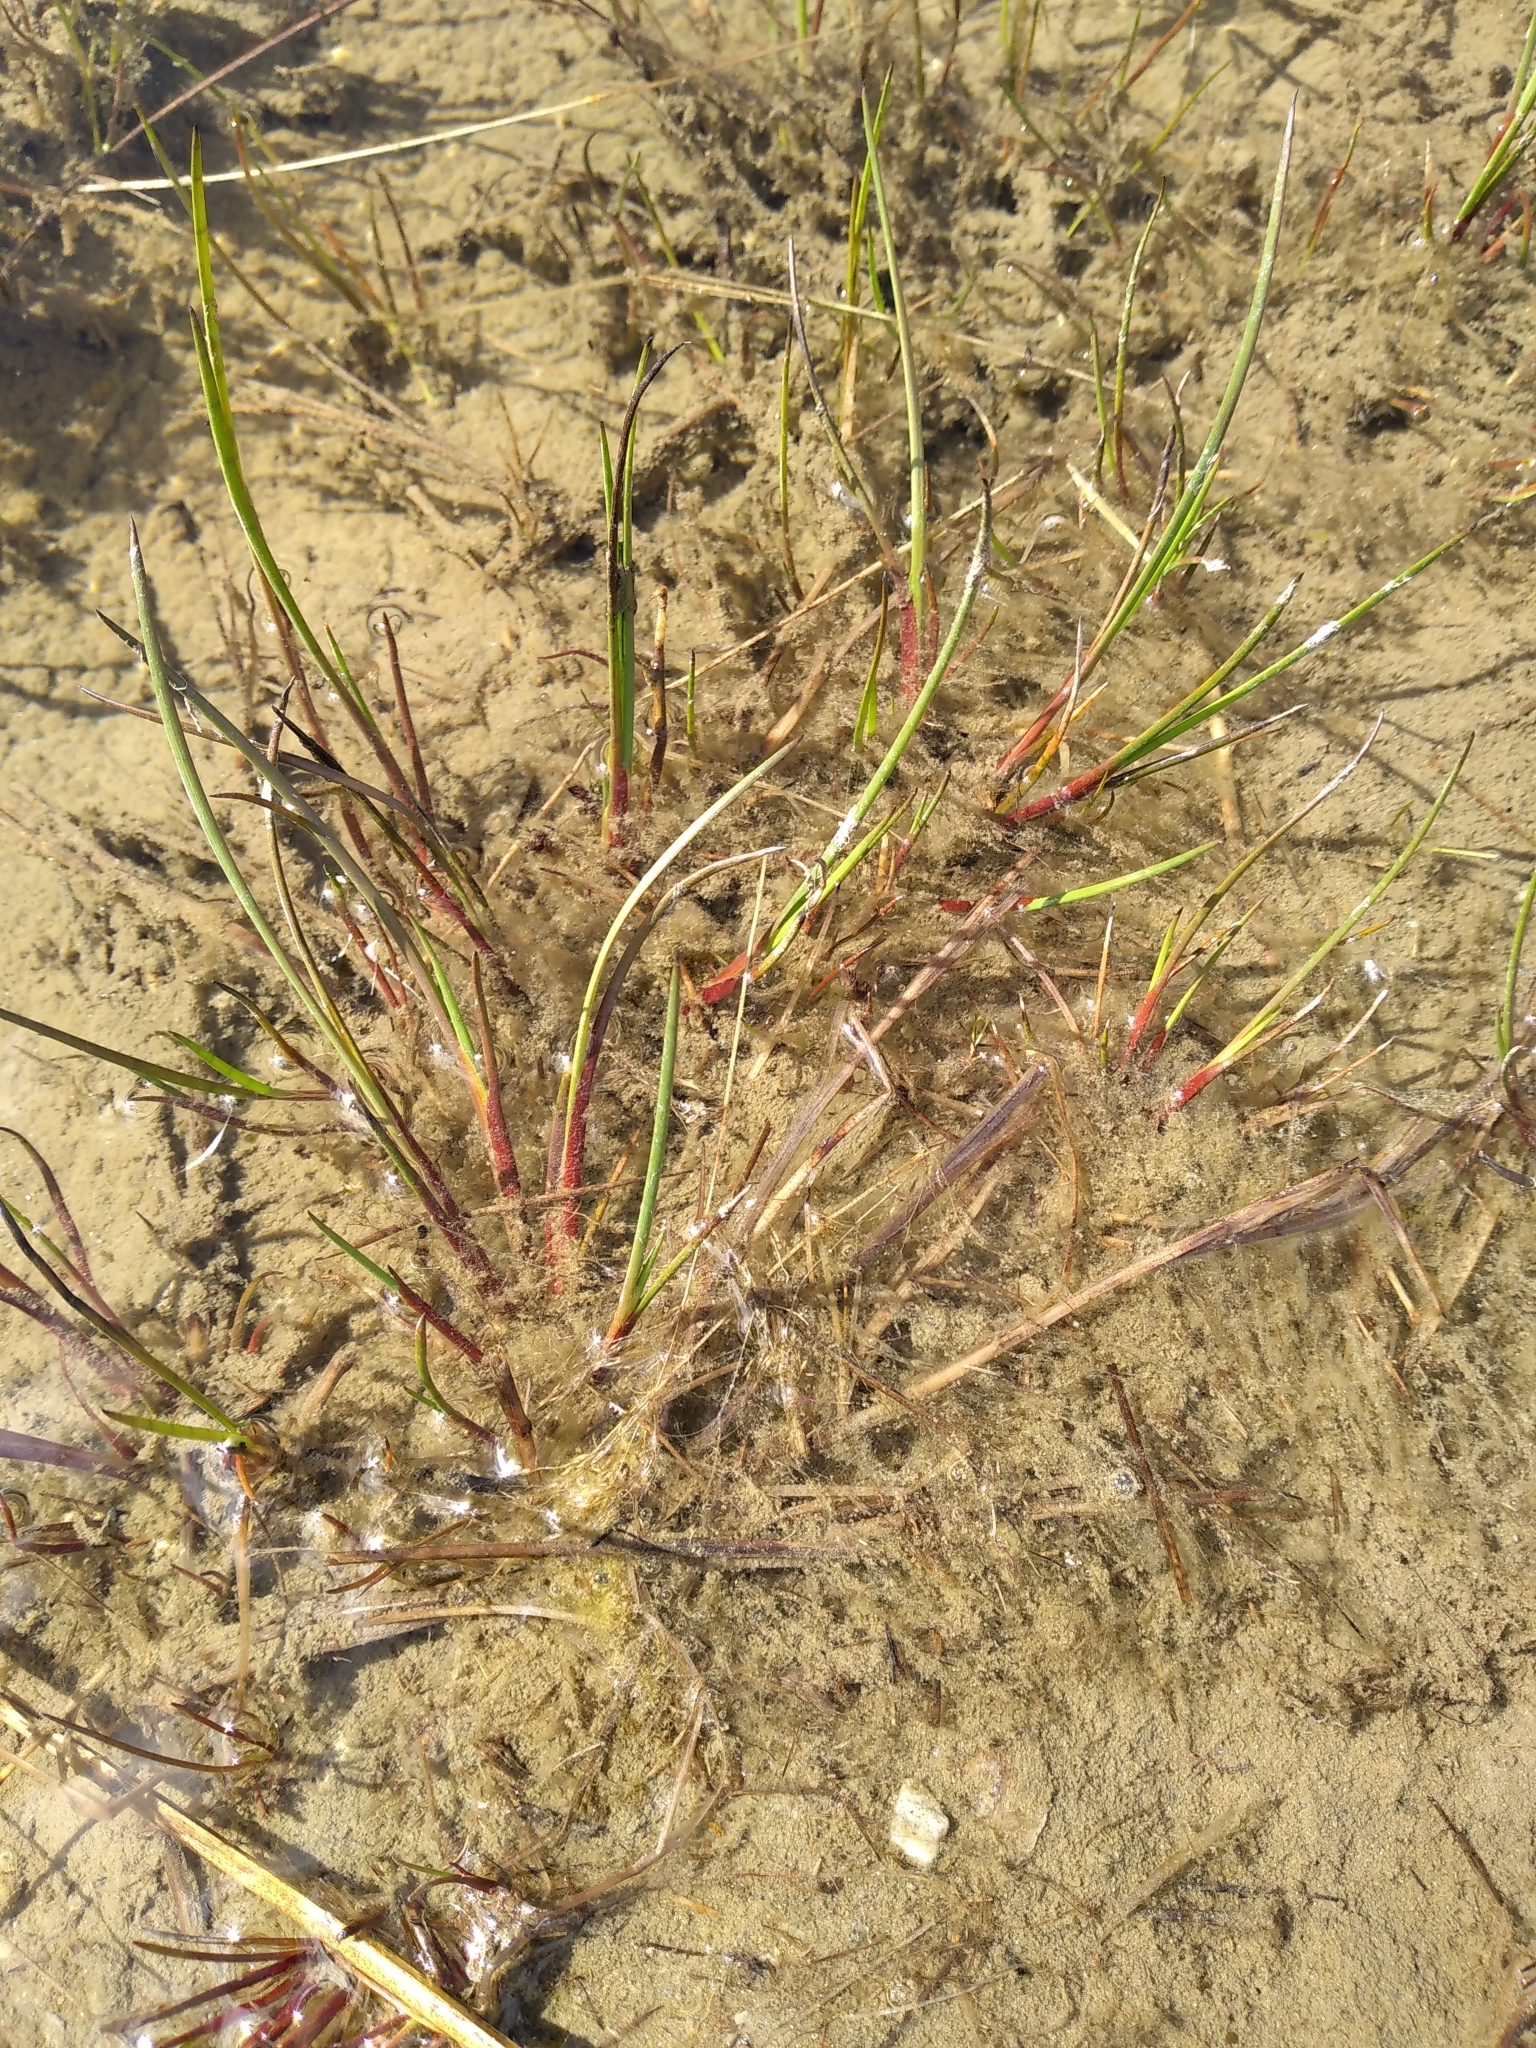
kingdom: Plantae
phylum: Tracheophyta
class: Liliopsida
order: Poales
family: Juncaceae
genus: Juncus
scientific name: Juncus articulatus
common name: Jointed rush
